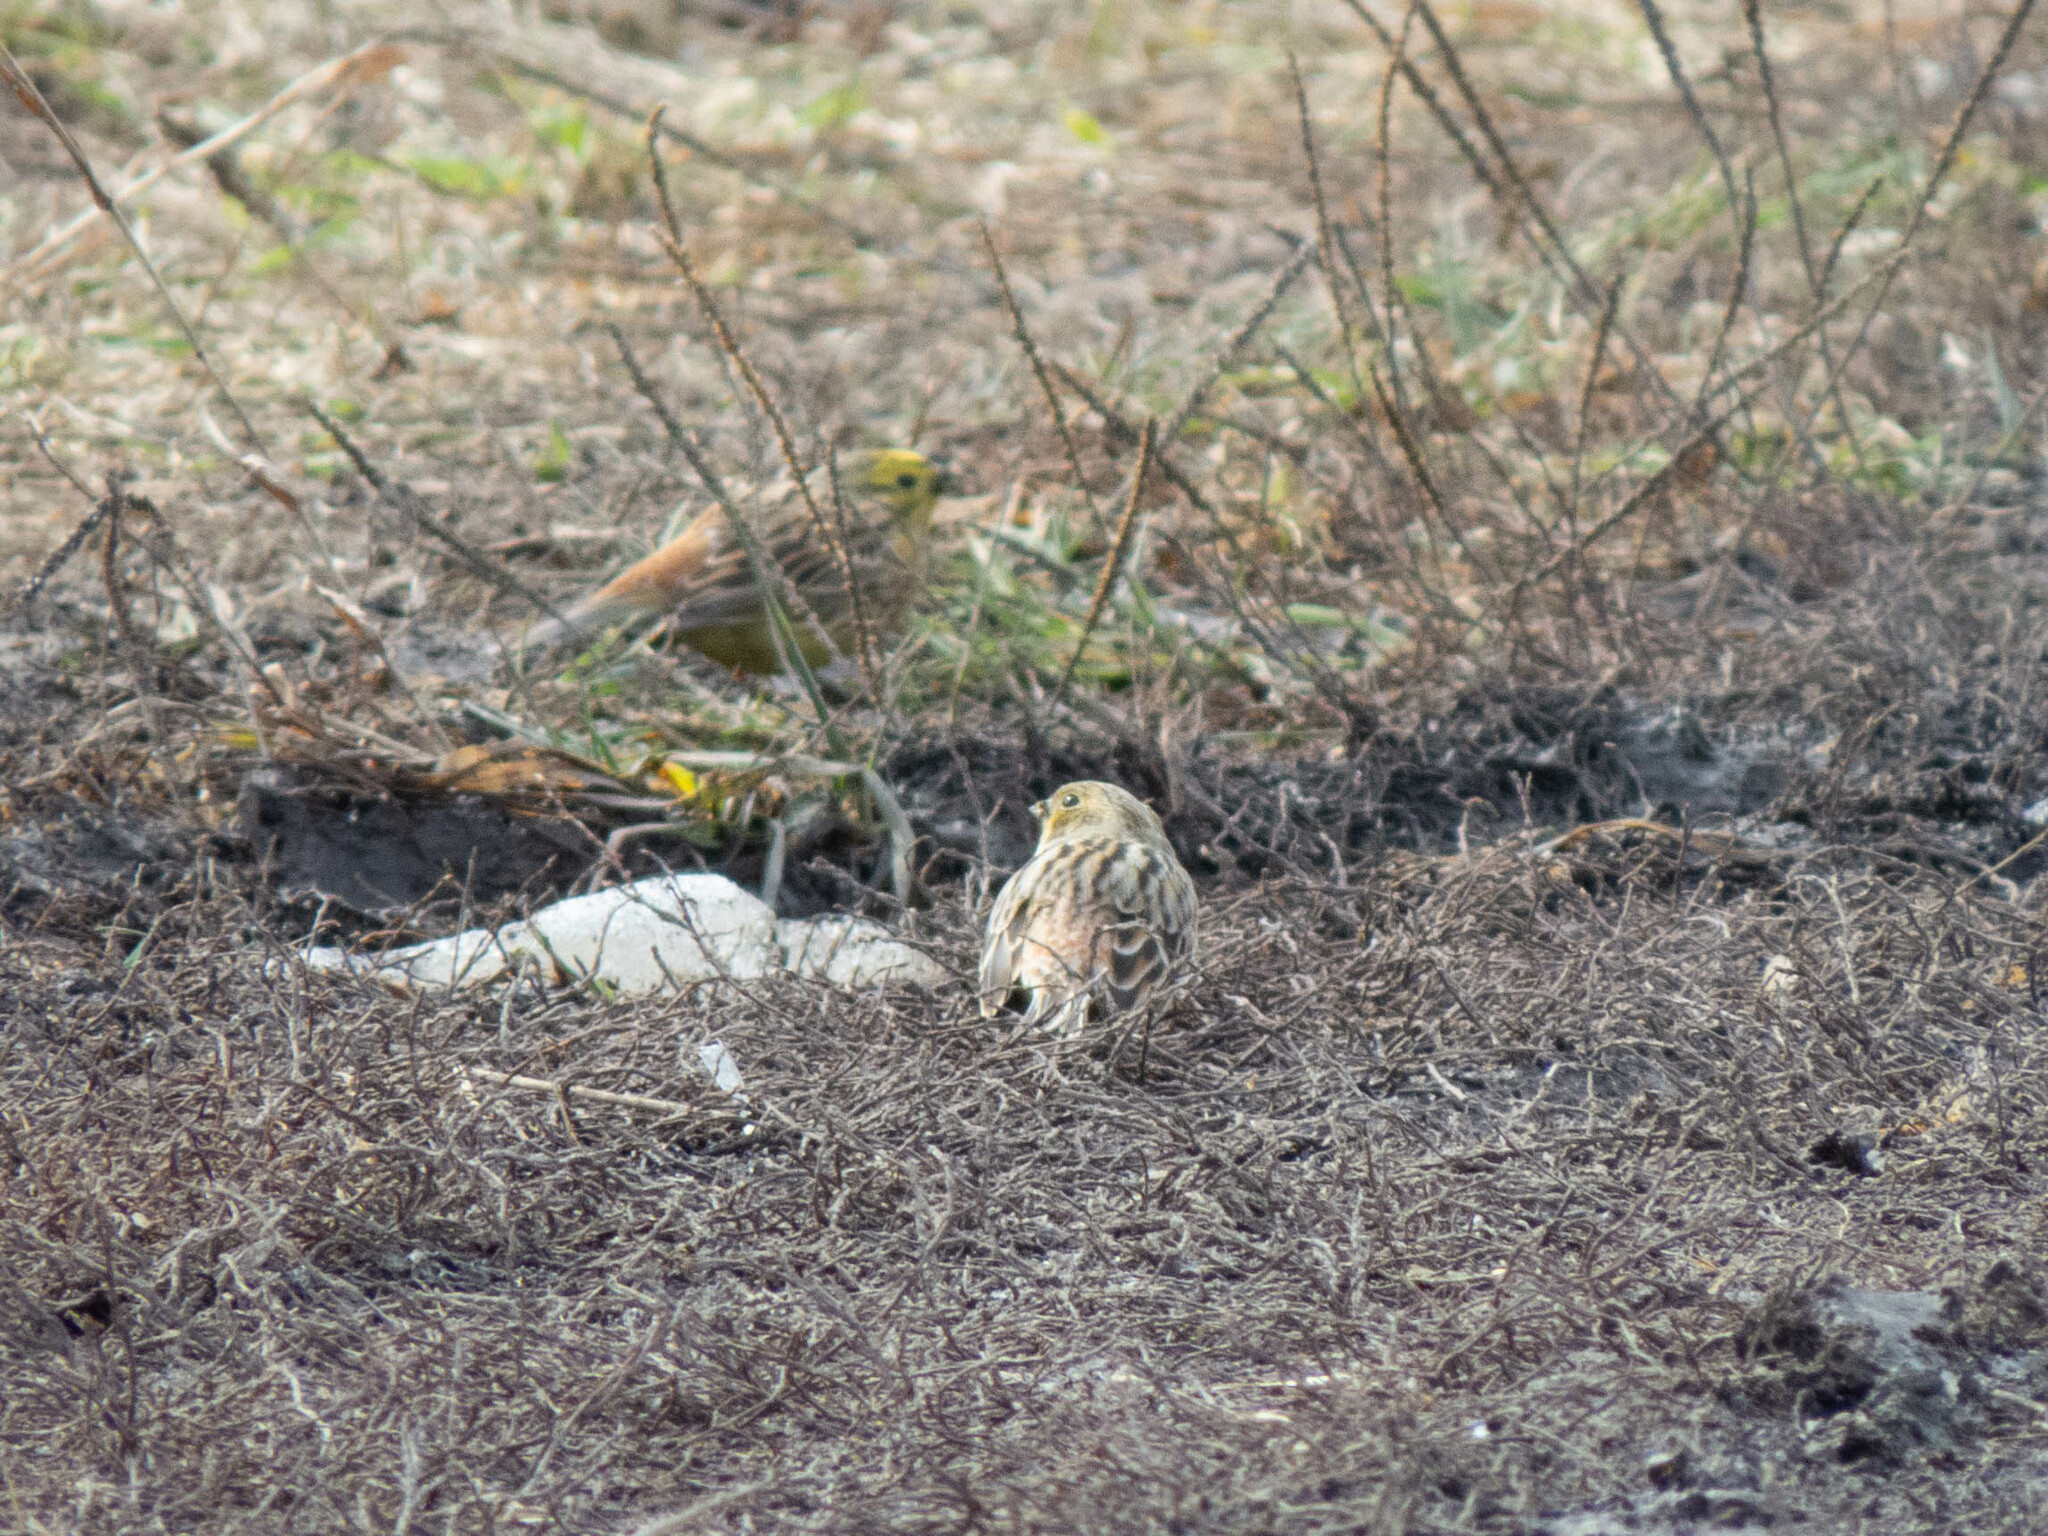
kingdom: Animalia
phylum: Chordata
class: Aves
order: Passeriformes
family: Emberizidae
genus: Emberiza
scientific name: Emberiza citrinella
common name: Yellowhammer
